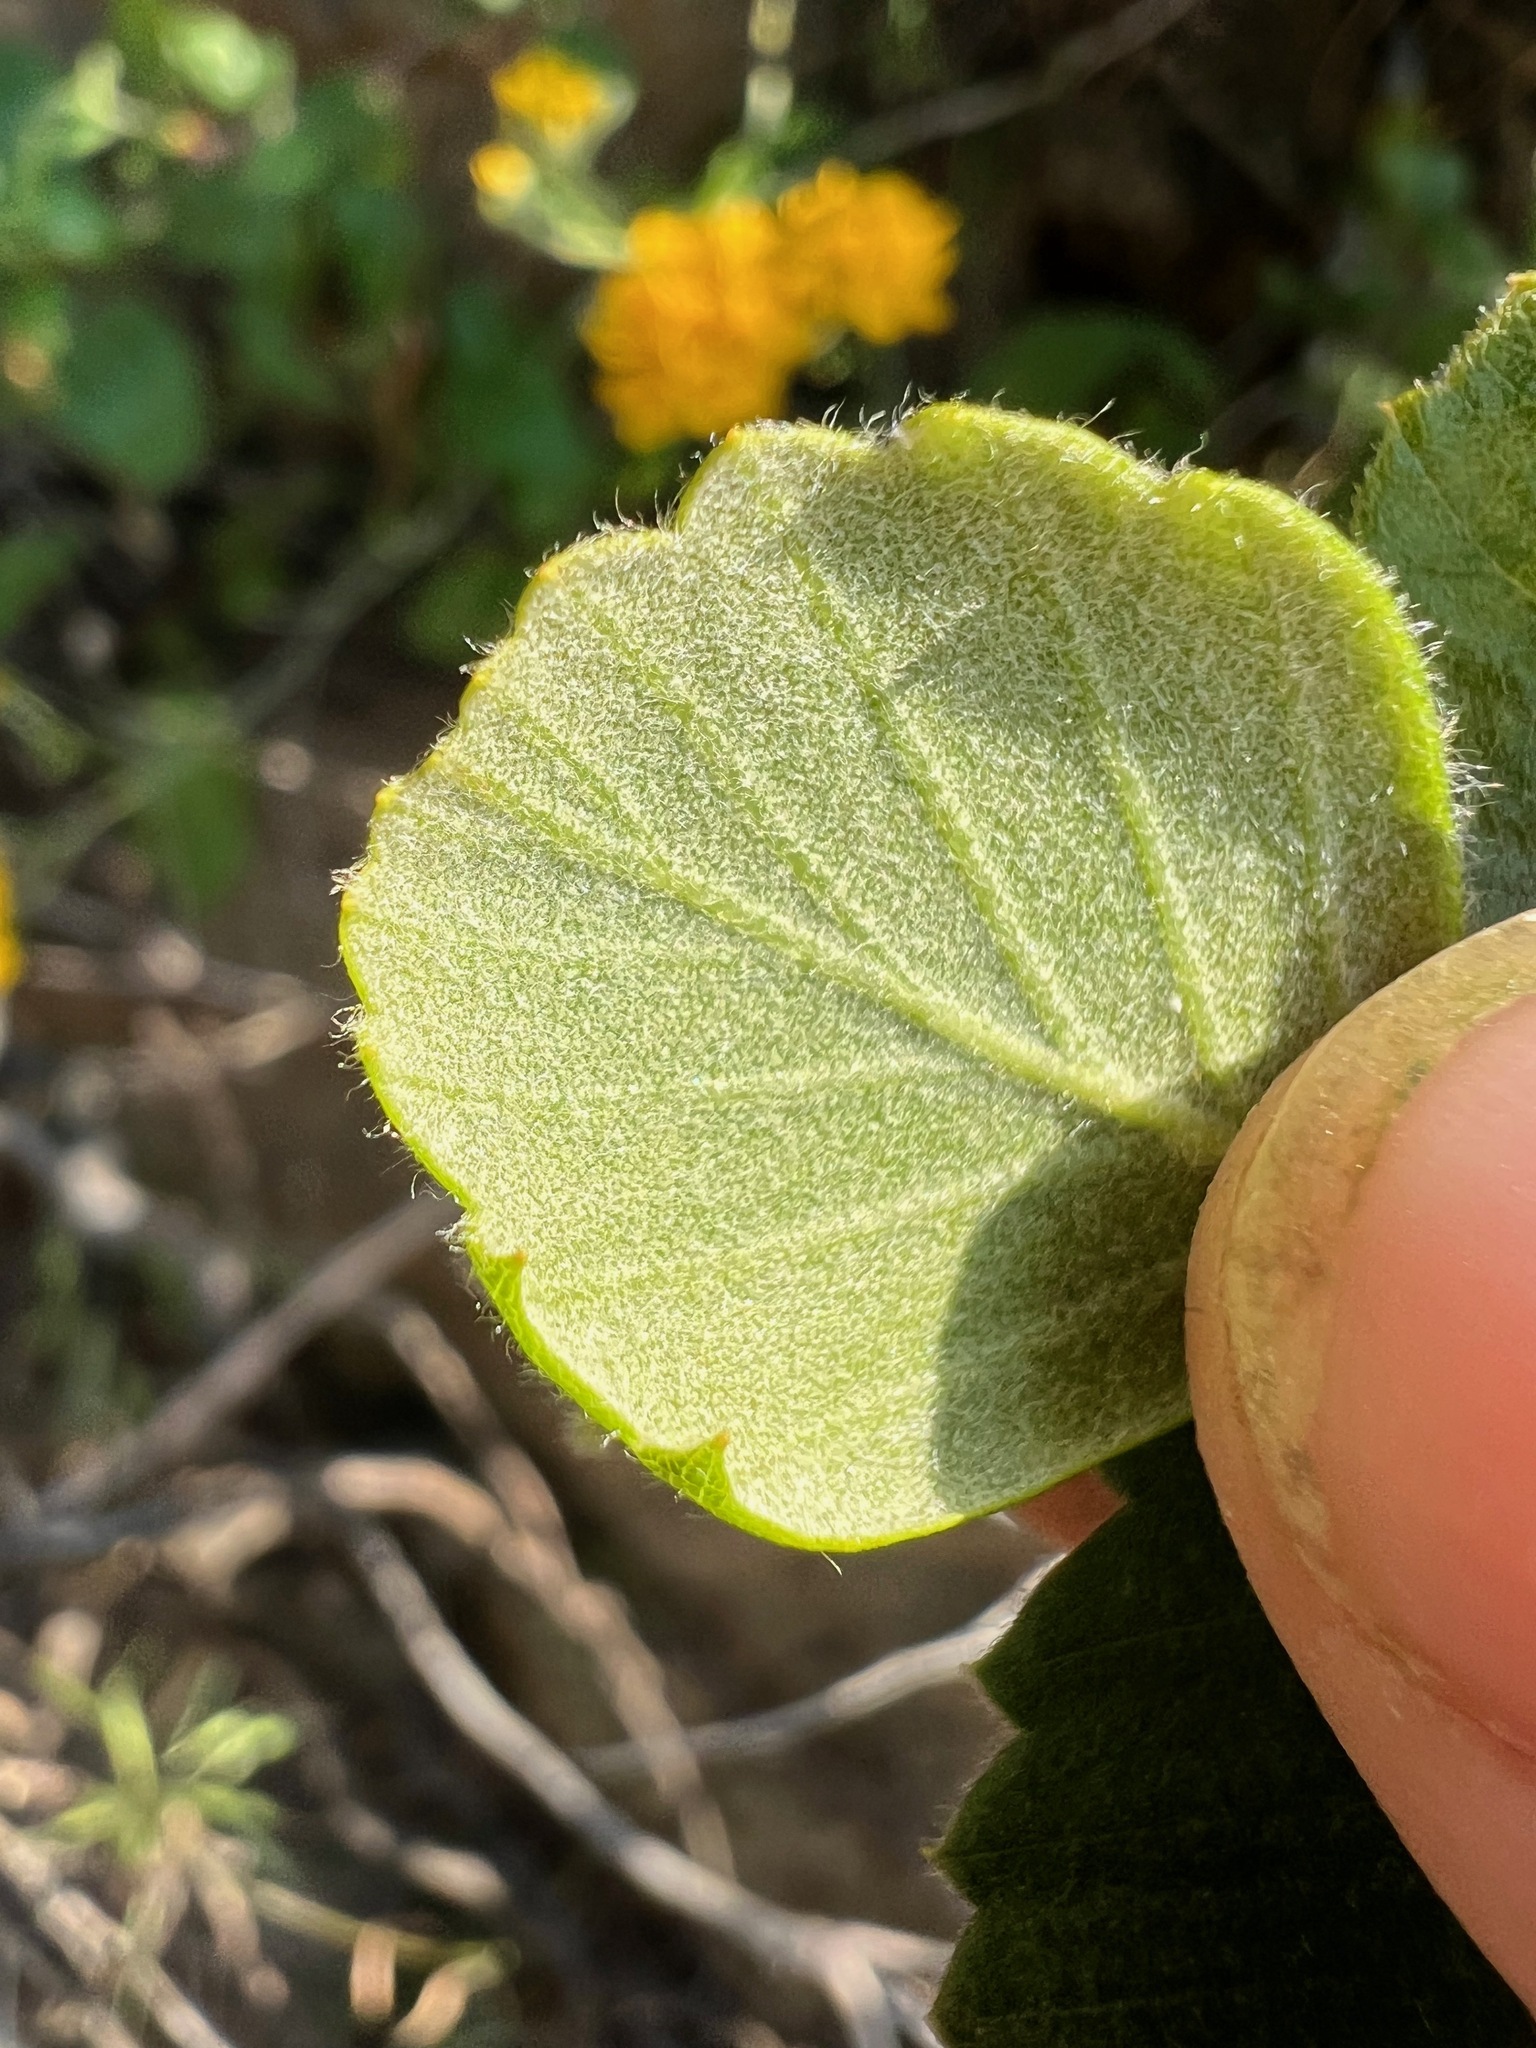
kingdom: Plantae
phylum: Tracheophyta
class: Magnoliopsida
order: Rosales
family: Rosaceae
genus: Cercocarpus
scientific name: Cercocarpus betuloides
